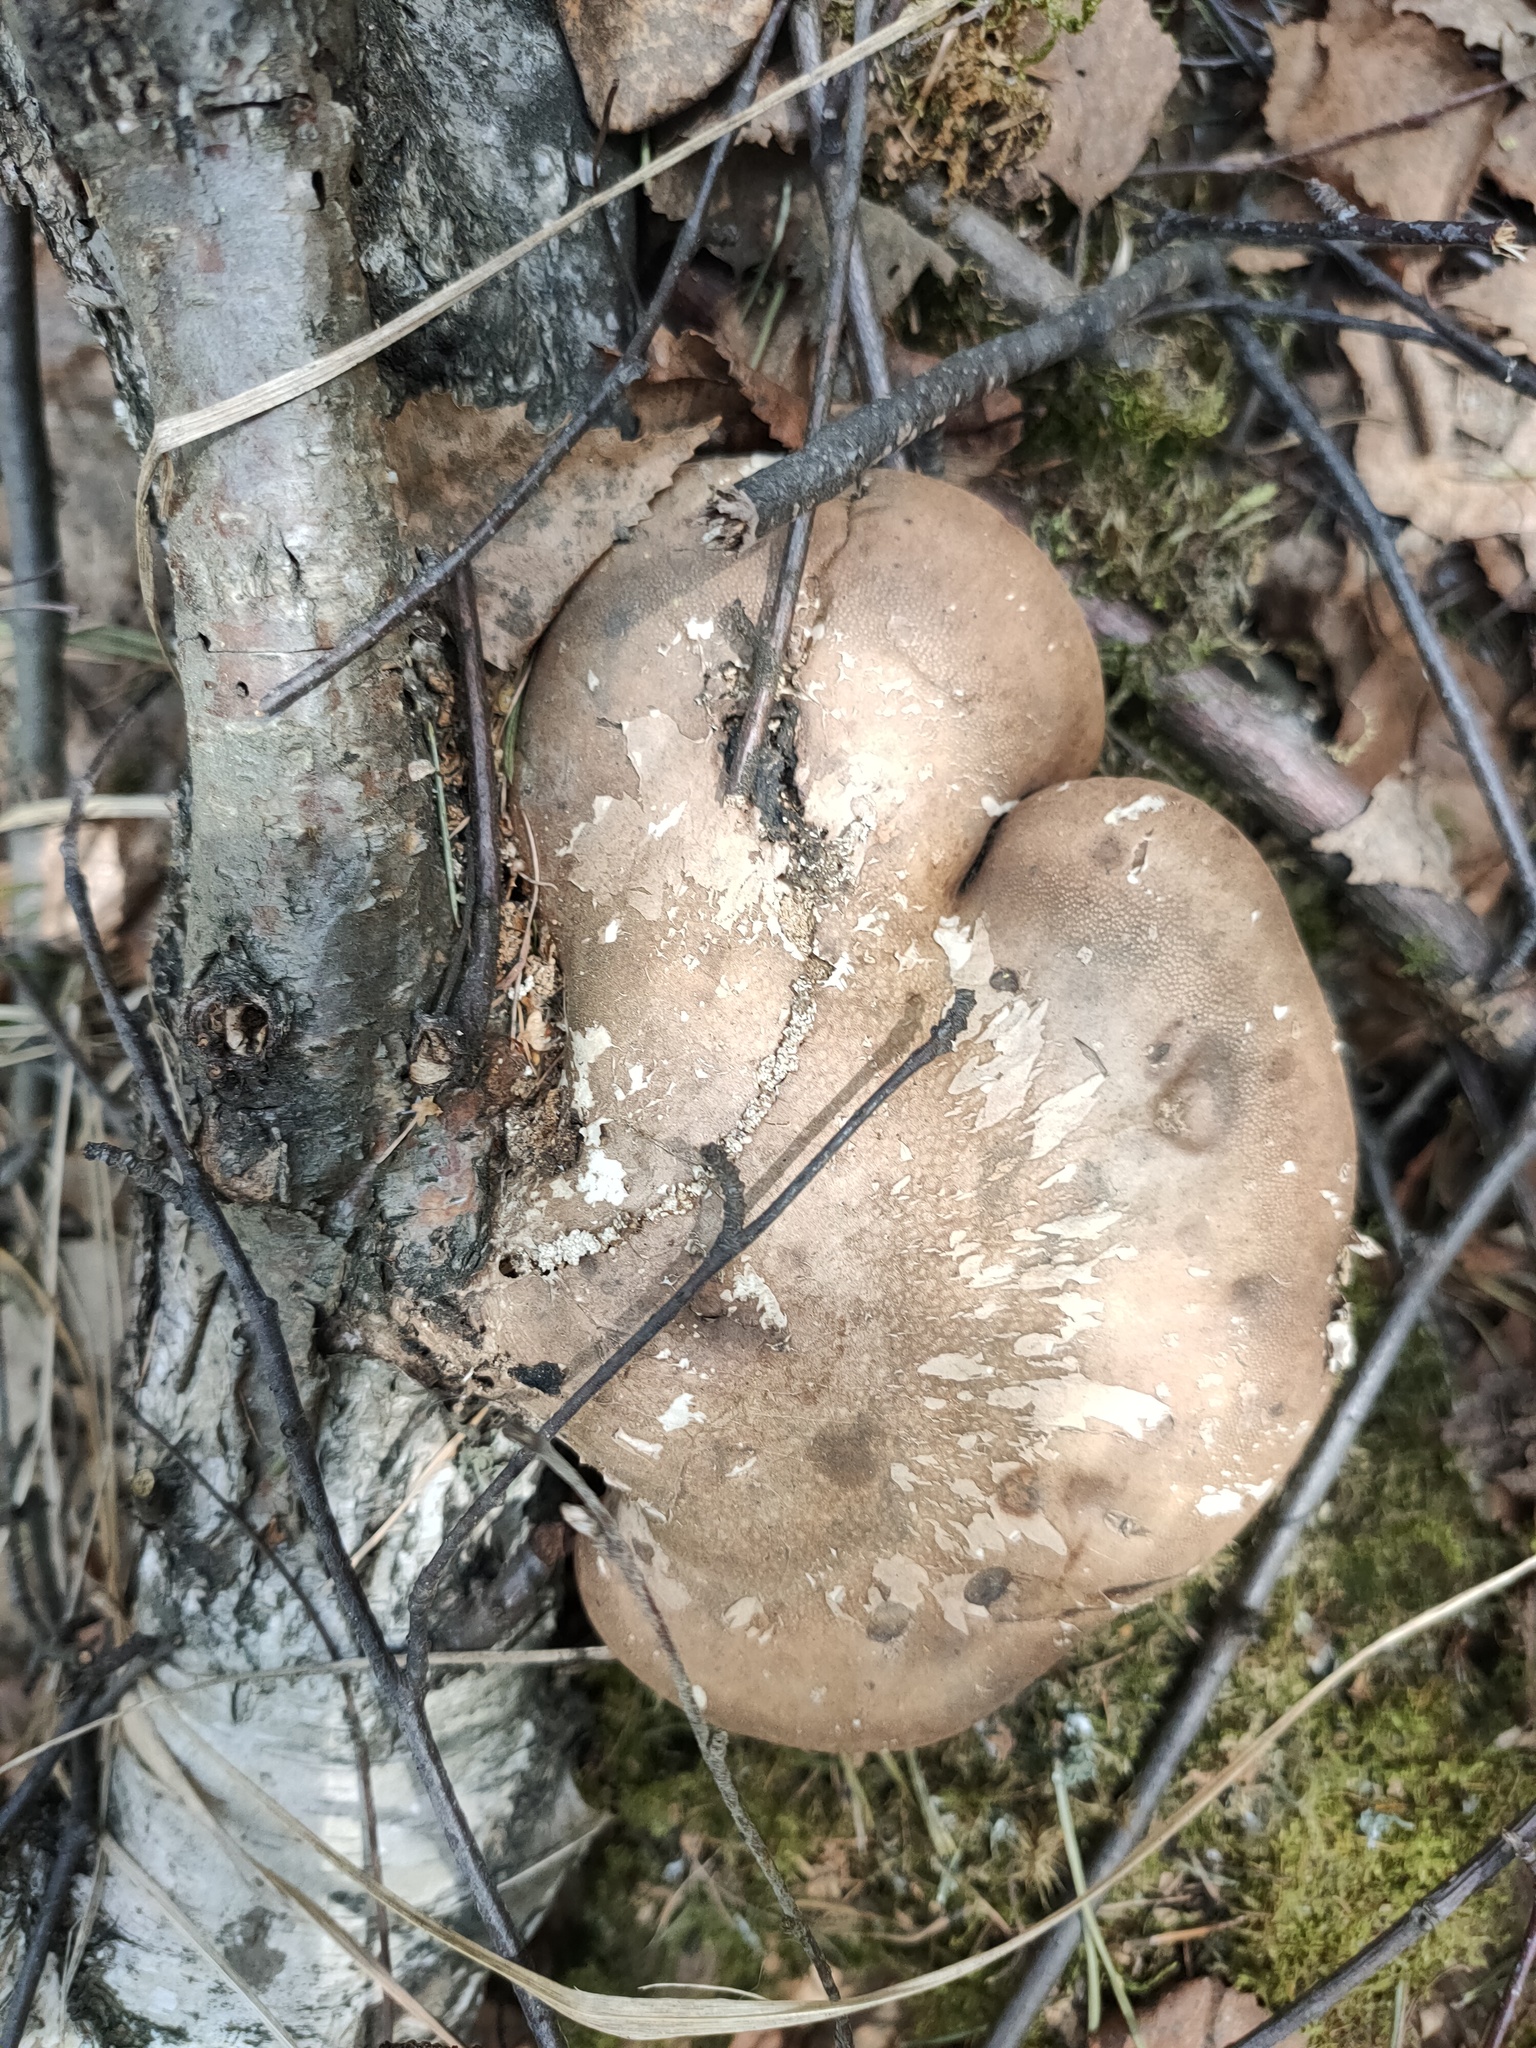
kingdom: Fungi
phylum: Basidiomycota
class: Agaricomycetes
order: Polyporales
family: Fomitopsidaceae
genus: Fomitopsis
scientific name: Fomitopsis betulina
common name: Birch polypore
